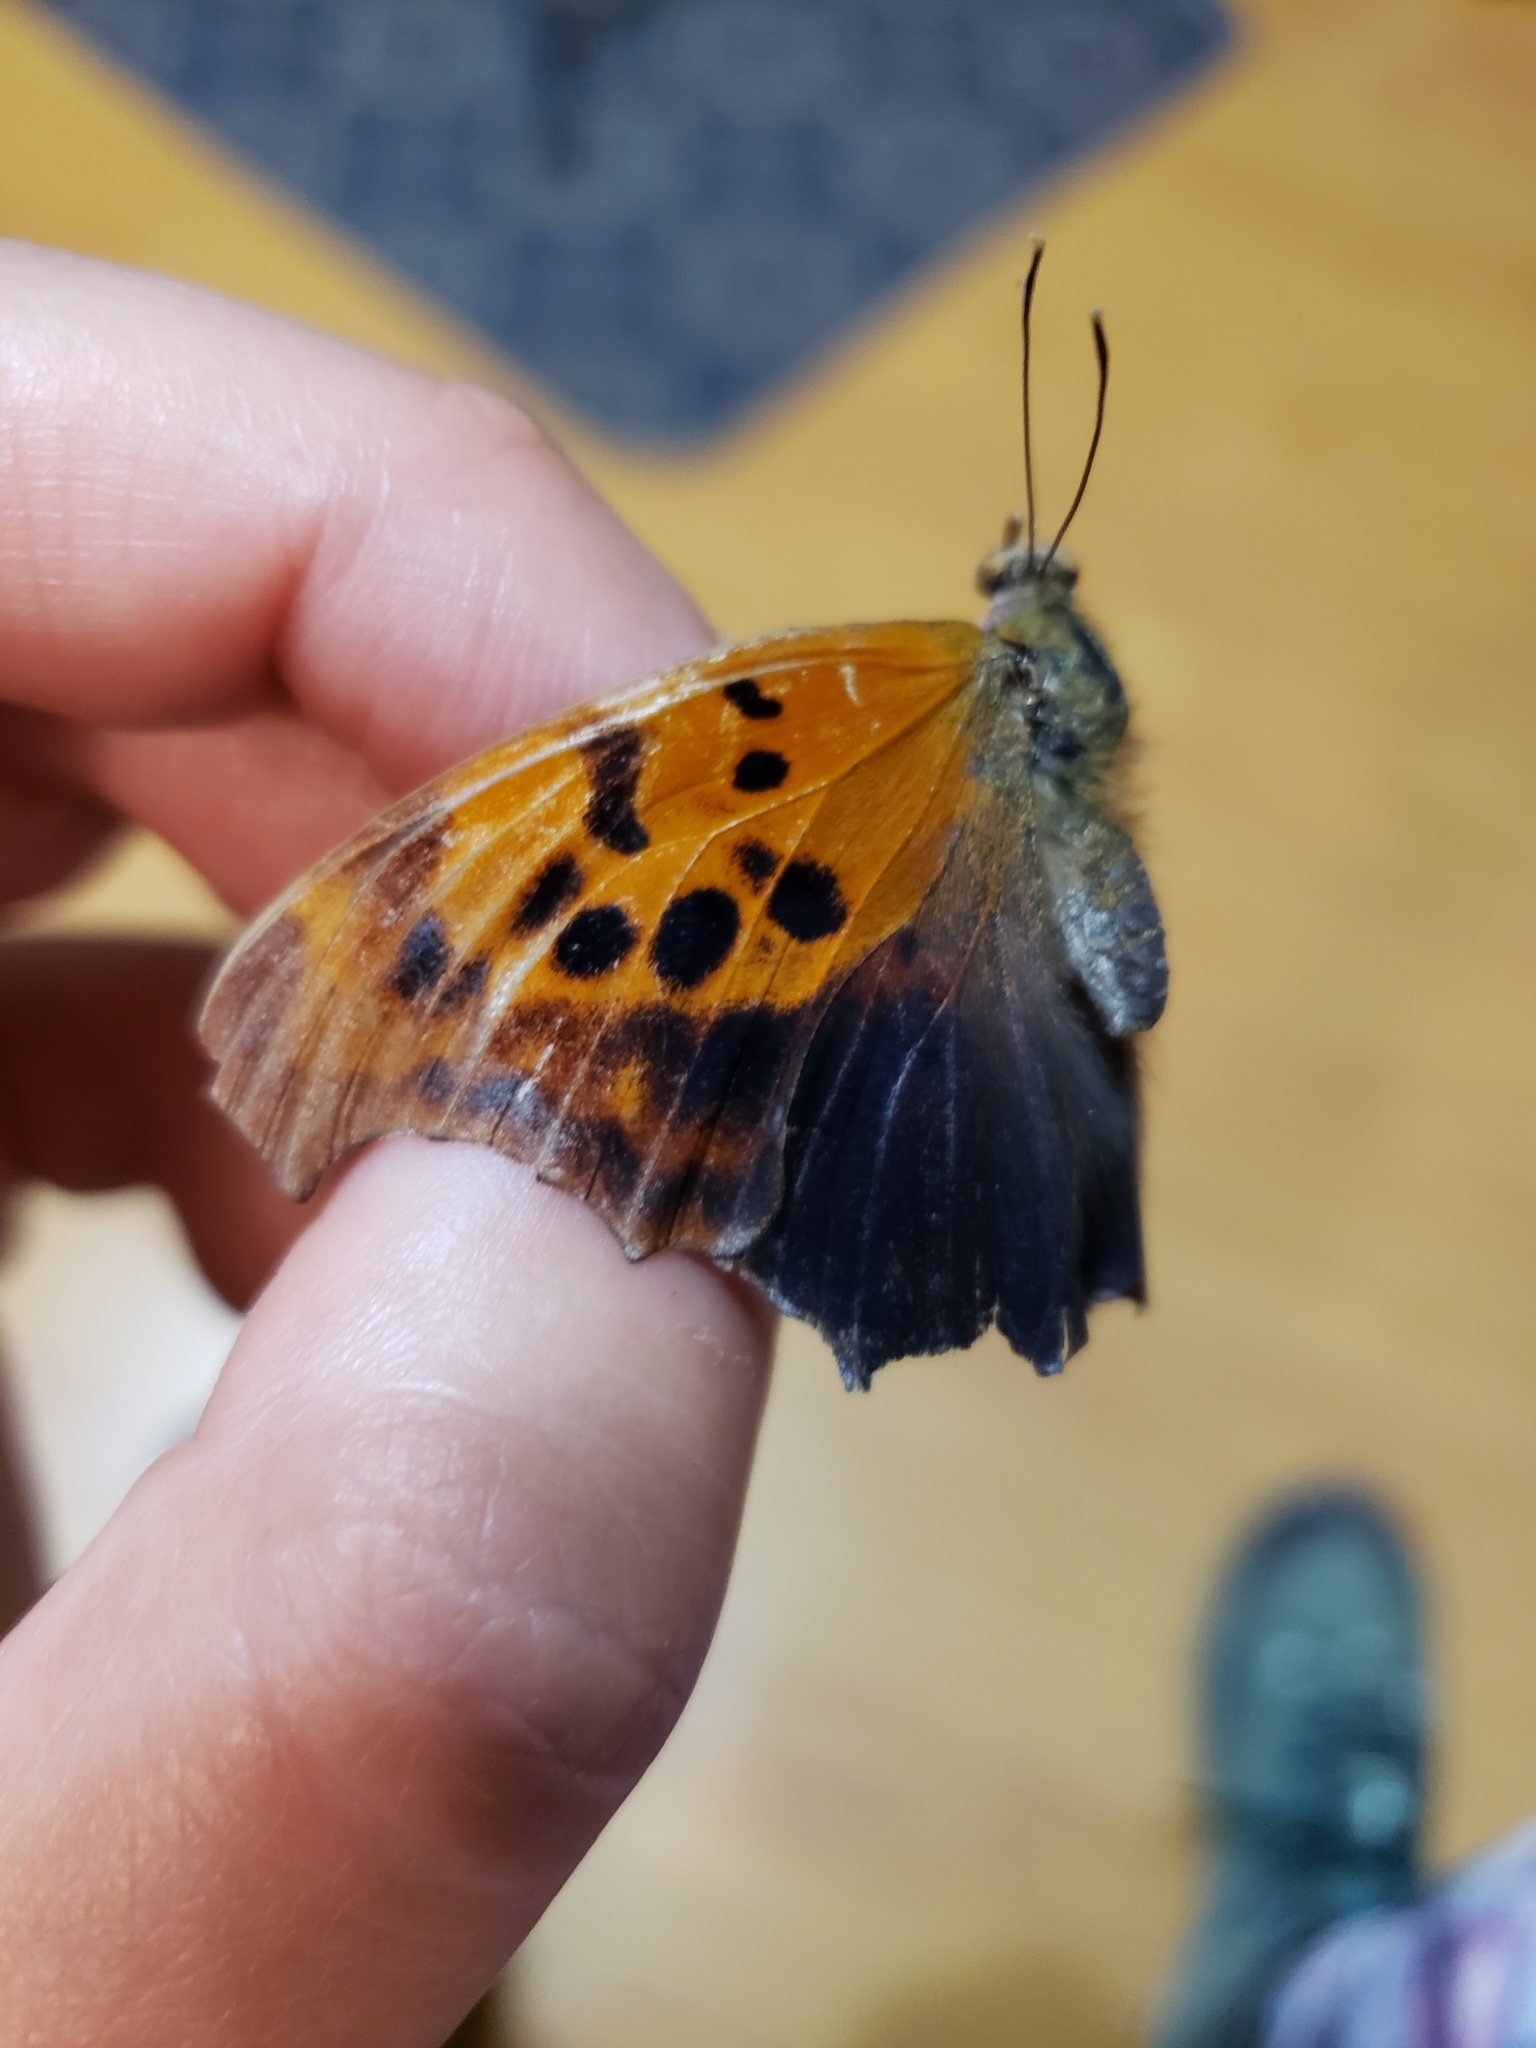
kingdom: Animalia
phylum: Arthropoda
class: Insecta
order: Lepidoptera
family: Nymphalidae
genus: Polygonia
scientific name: Polygonia interrogationis
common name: Question mark
